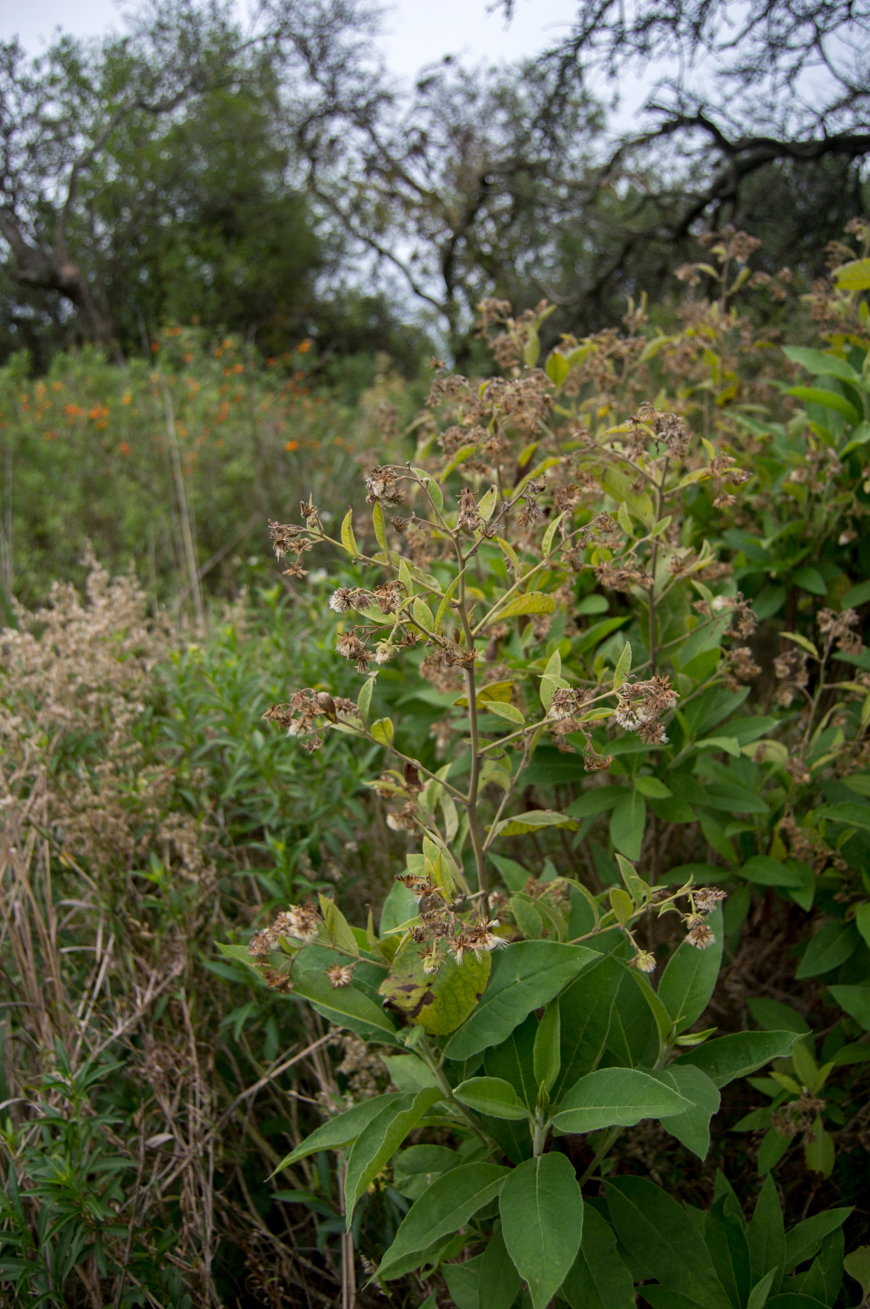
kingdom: Plantae
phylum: Tracheophyta
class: Magnoliopsida
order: Asterales
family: Asteraceae
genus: Trixis
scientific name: Trixis praestans
